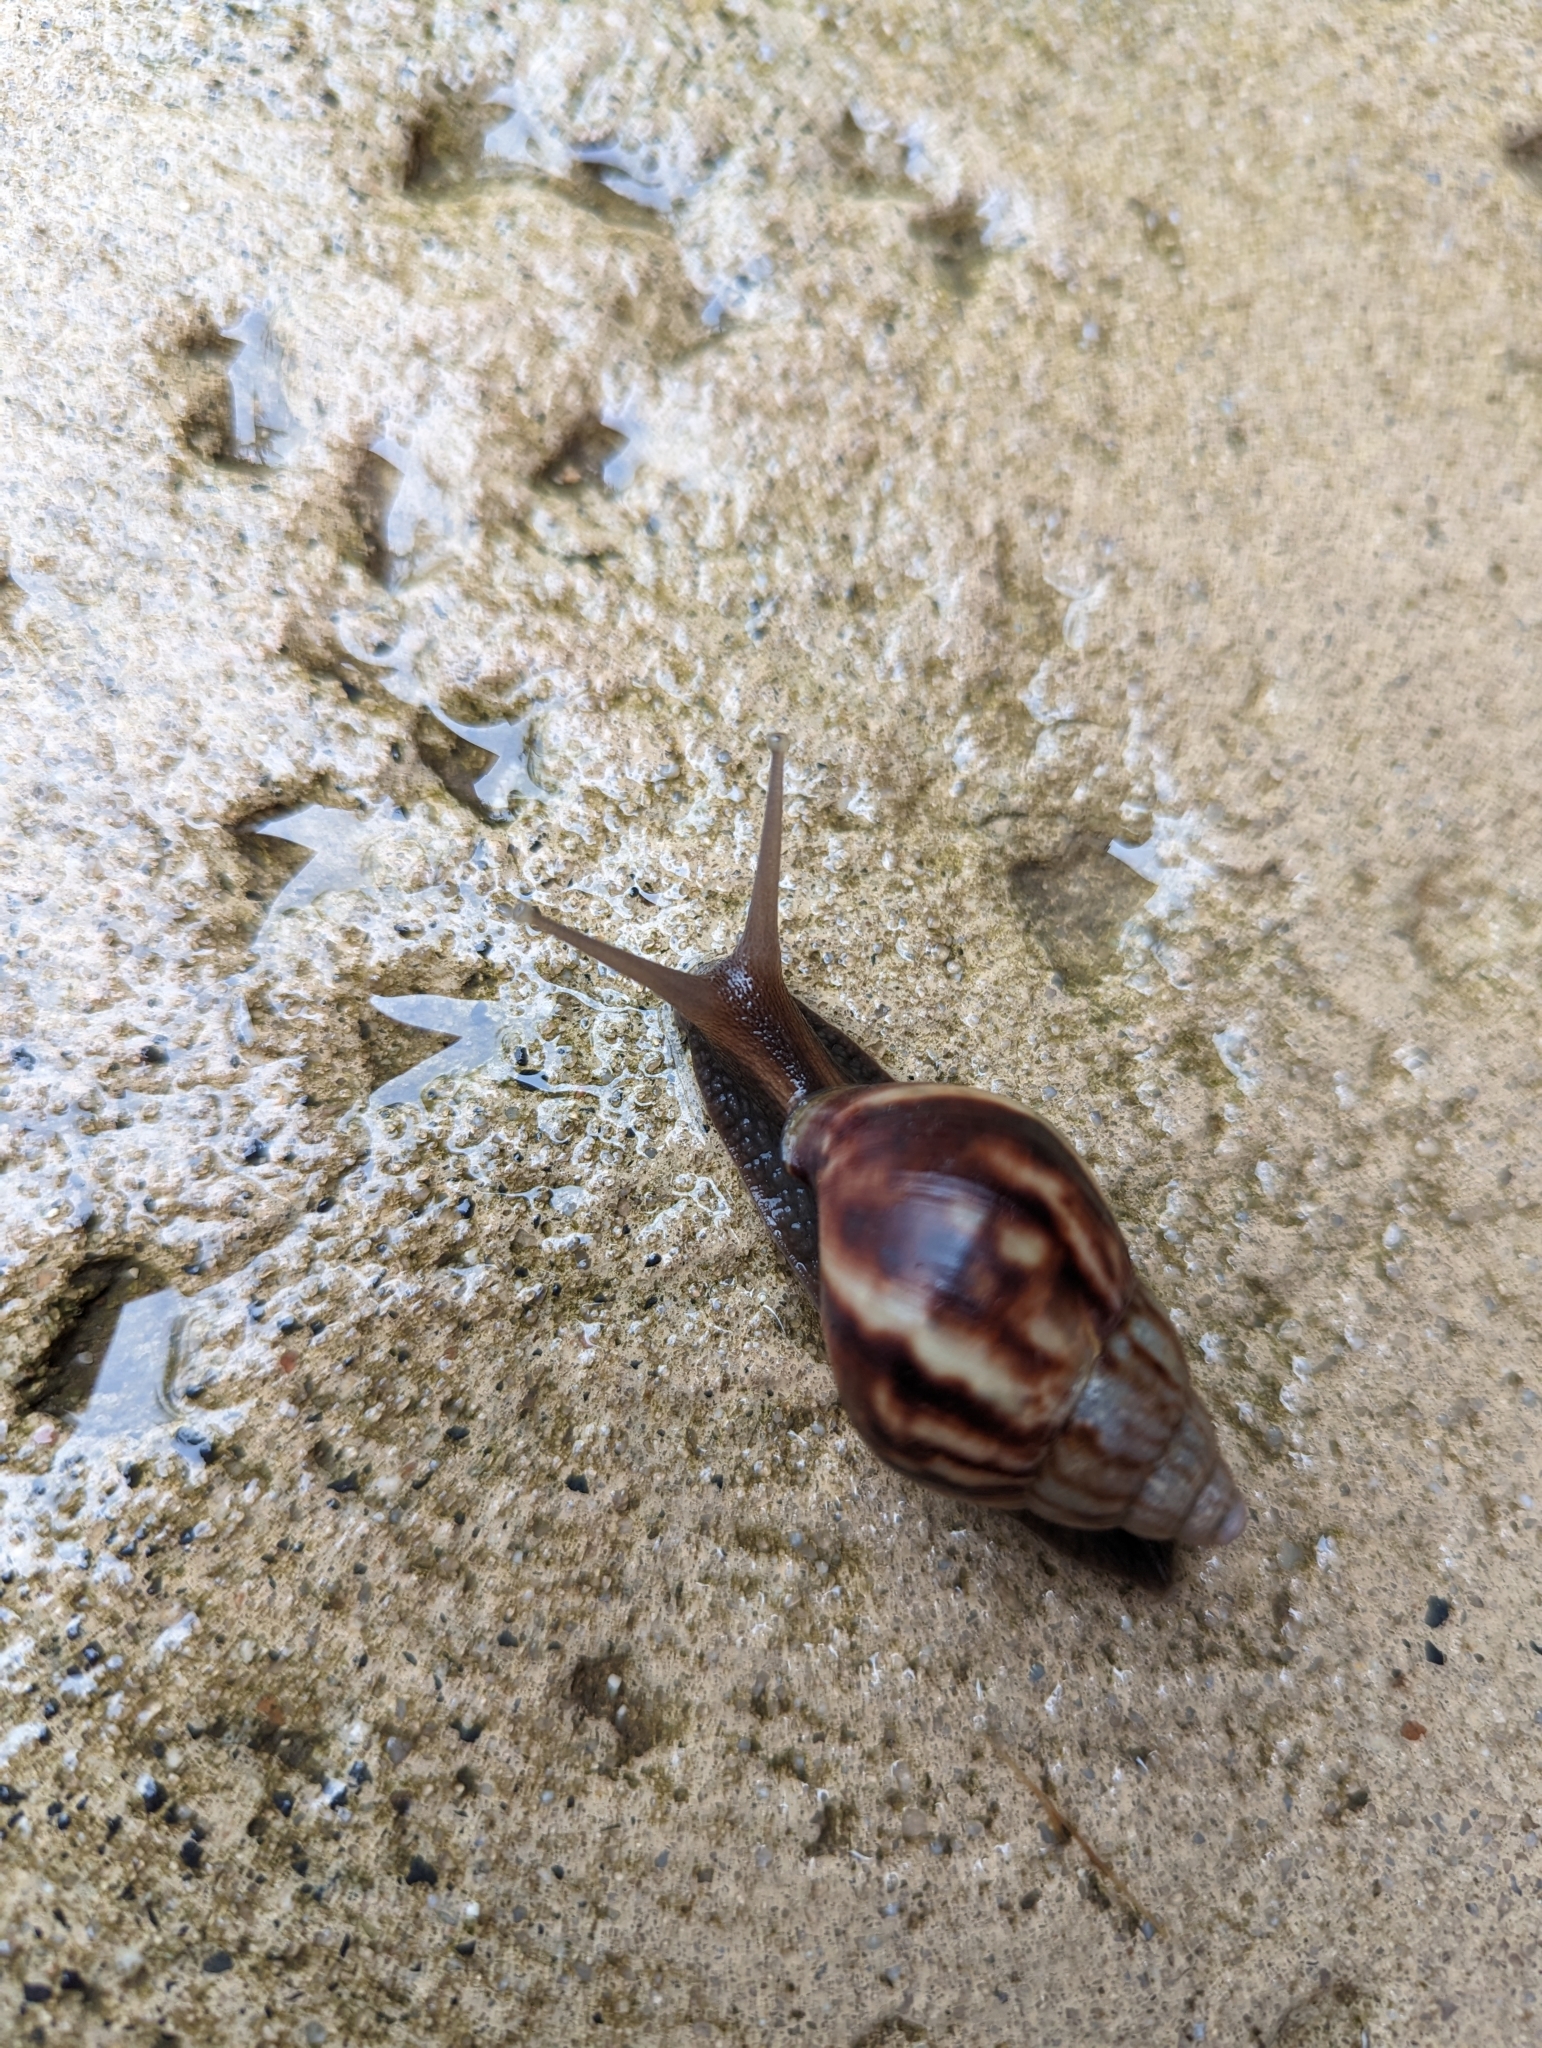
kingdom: Animalia
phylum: Mollusca
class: Gastropoda
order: Stylommatophora
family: Achatinidae
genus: Lissachatina
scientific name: Lissachatina fulica
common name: Giant african snail
